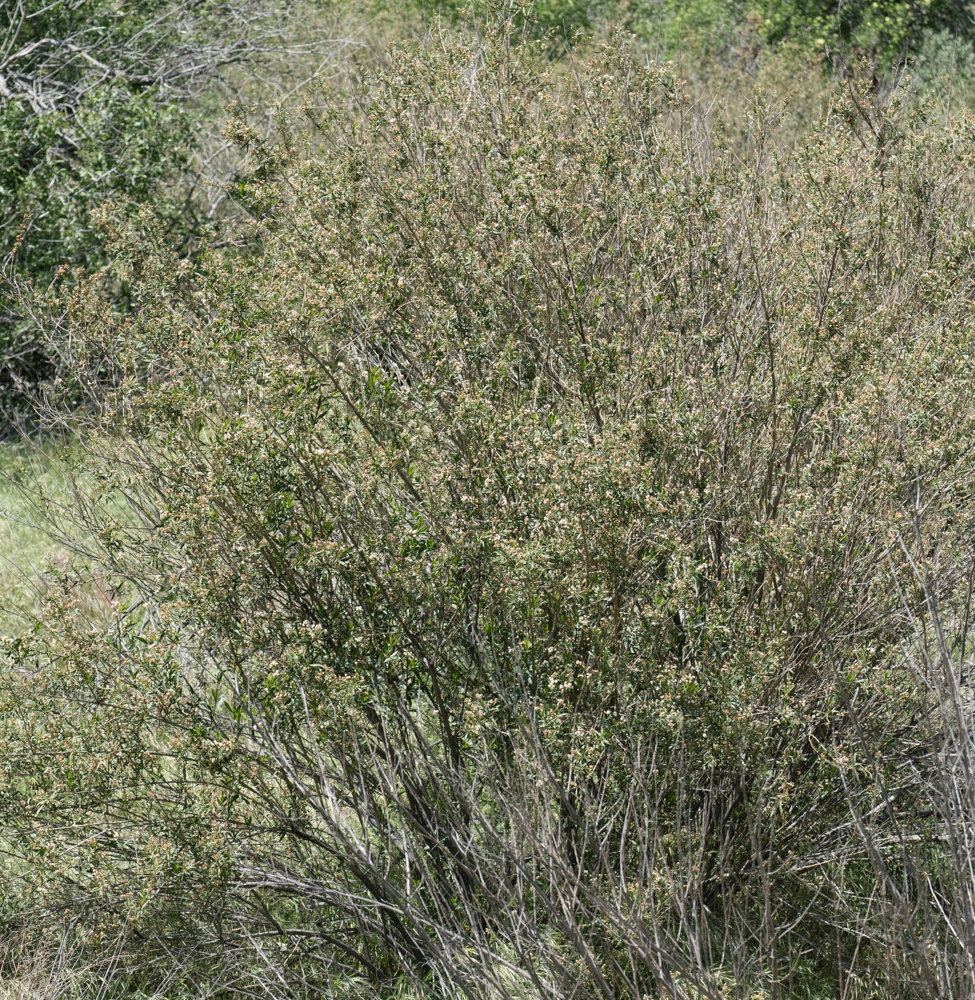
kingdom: Plantae
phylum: Tracheophyta
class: Magnoliopsida
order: Asterales
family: Asteraceae
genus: Baccharis
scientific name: Baccharis salicifolia
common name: Sticky baccharis
